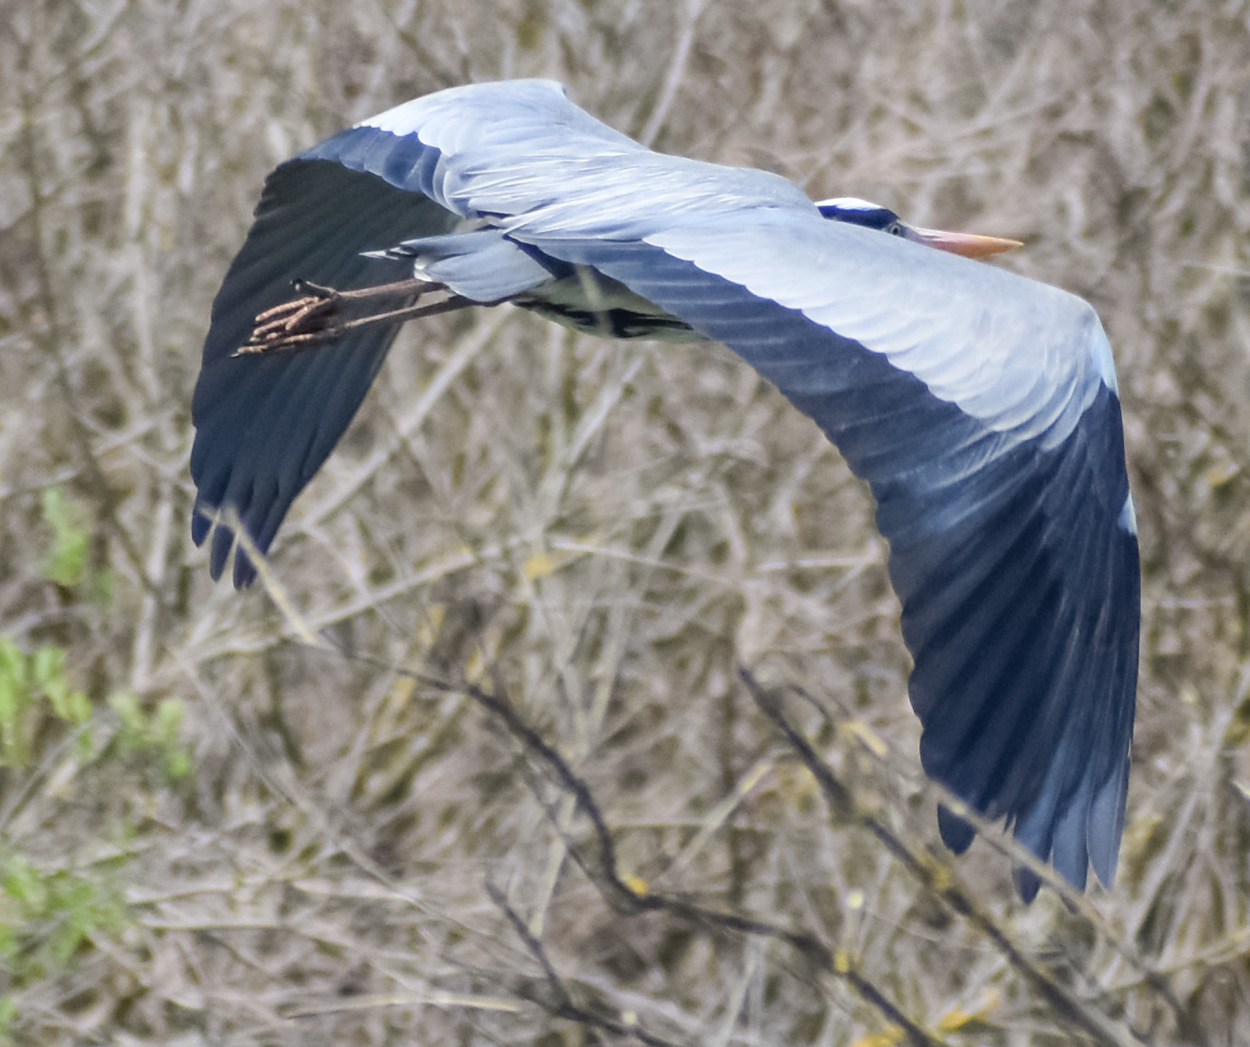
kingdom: Animalia
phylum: Chordata
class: Aves
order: Pelecaniformes
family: Ardeidae
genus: Ardea
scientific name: Ardea cinerea
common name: Grey heron
